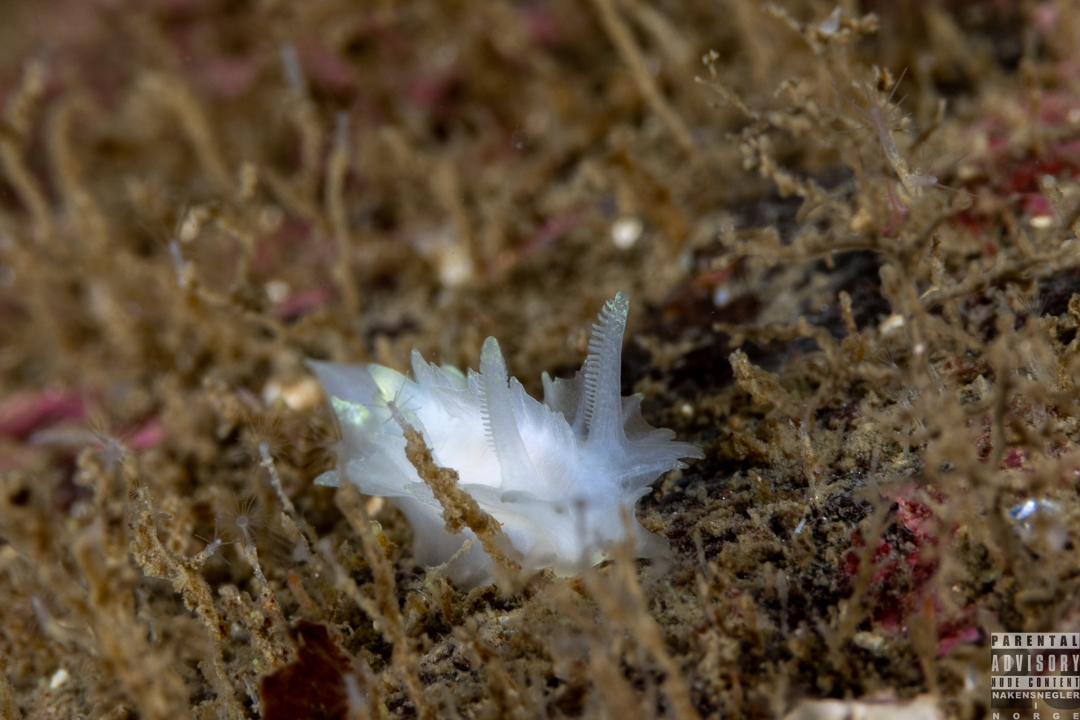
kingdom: Animalia
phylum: Mollusca
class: Gastropoda
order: Nudibranchia
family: Goniodorididae
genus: Lophodoris
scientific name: Lophodoris danielsseni
